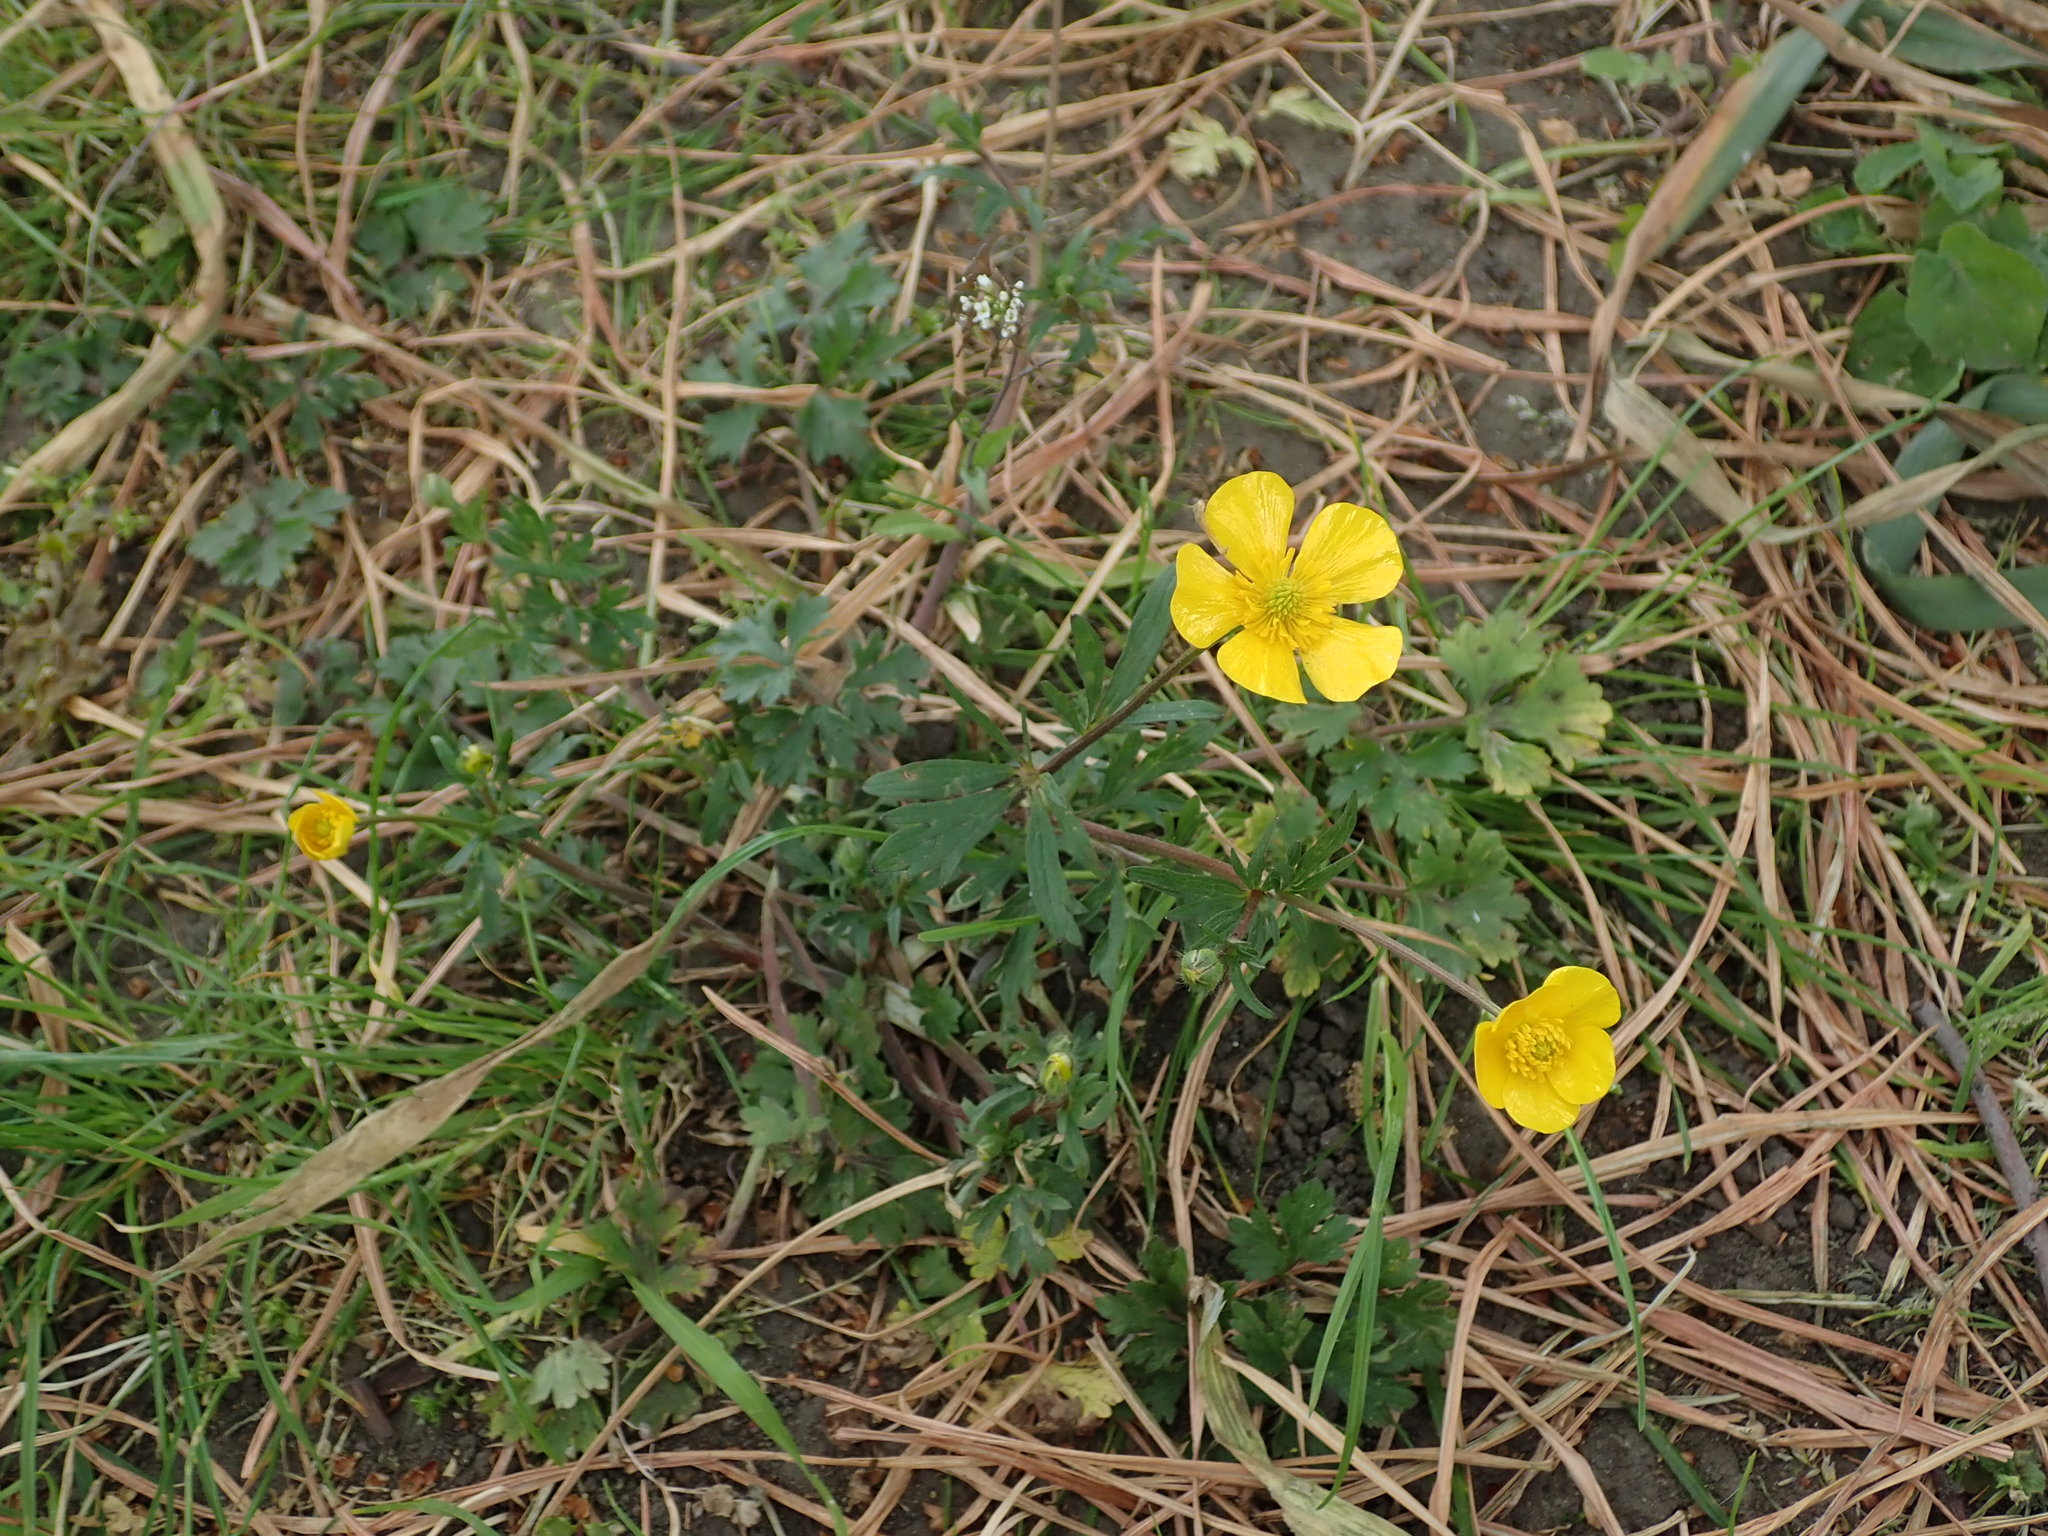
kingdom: Plantae
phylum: Tracheophyta
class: Magnoliopsida
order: Ranunculales
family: Ranunculaceae
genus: Ranunculus
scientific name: Ranunculus bulbosus
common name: Bulbous buttercup
